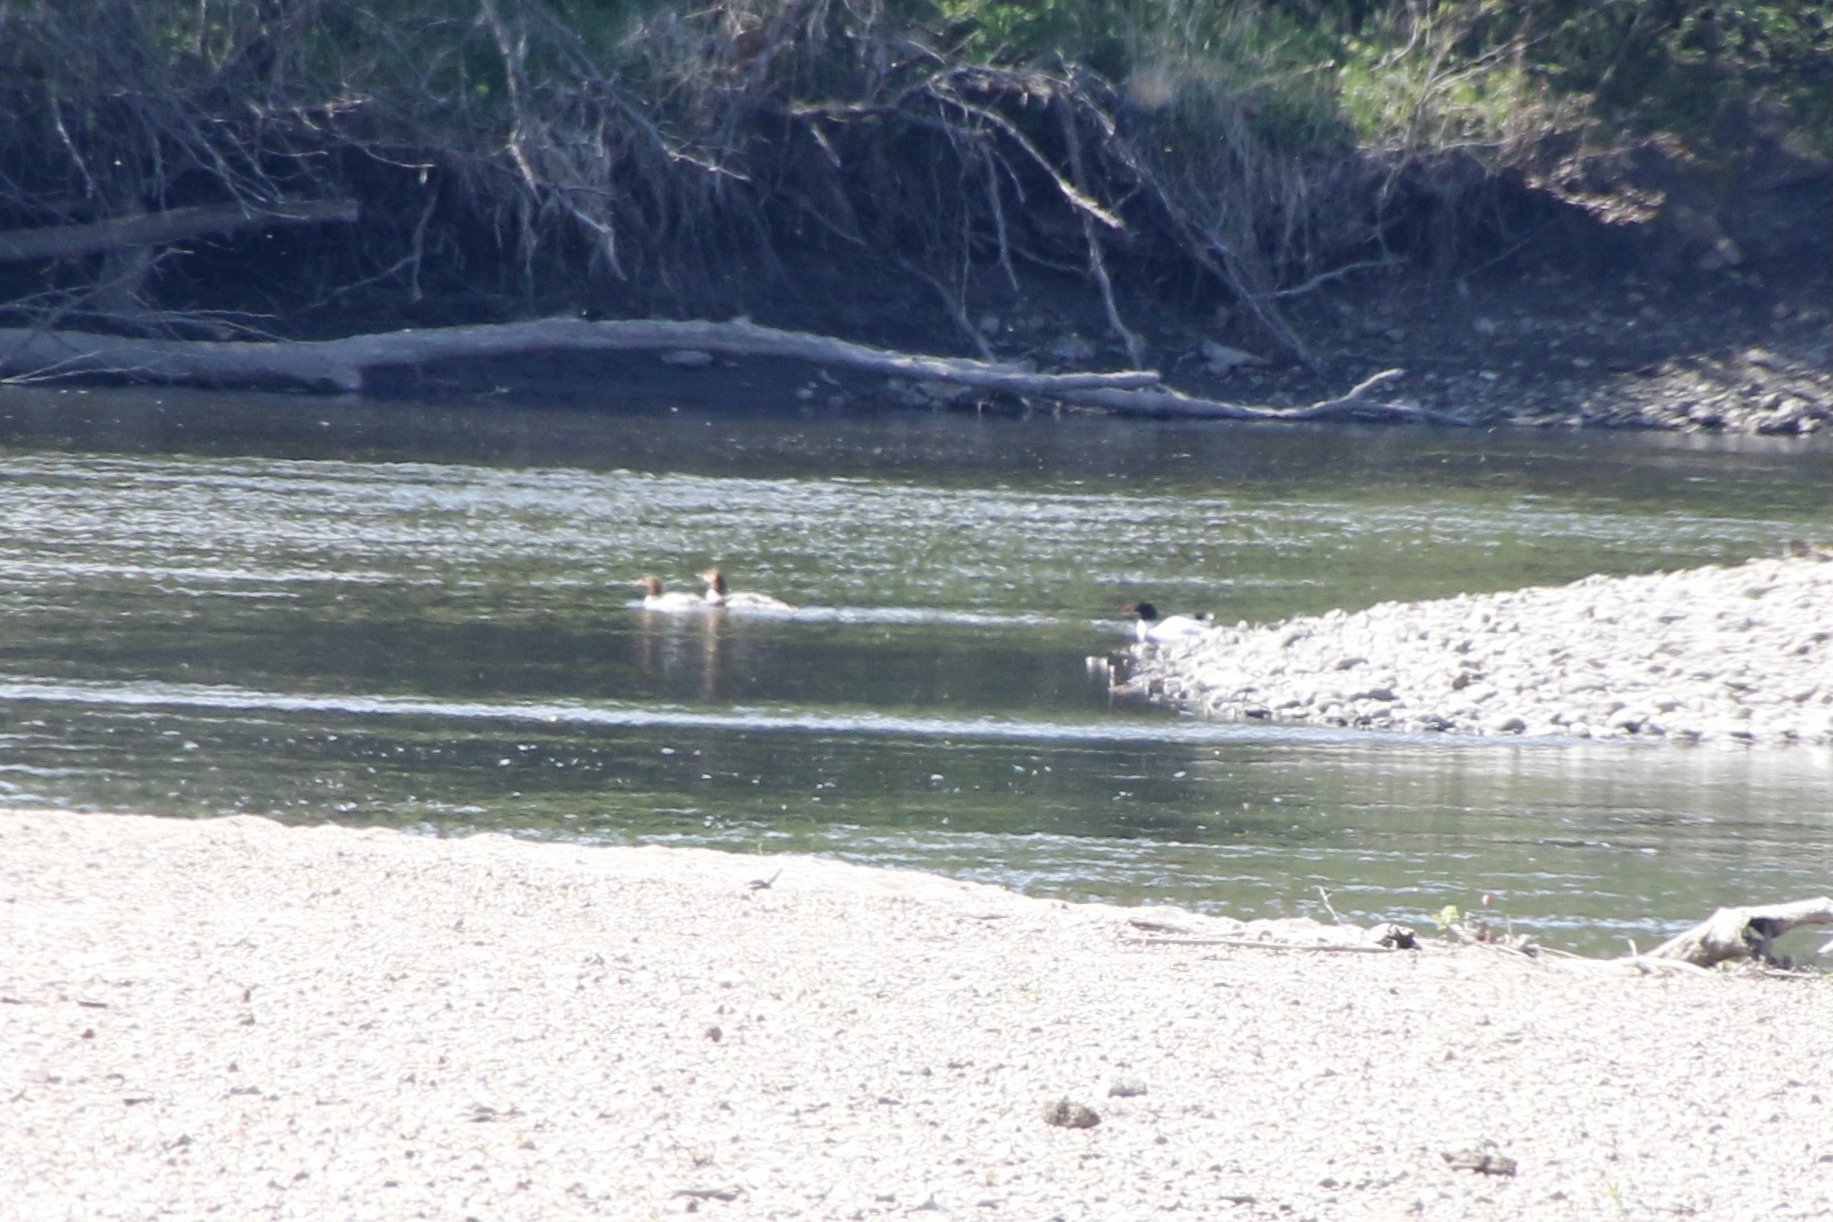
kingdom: Animalia
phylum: Chordata
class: Aves
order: Anseriformes
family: Anatidae
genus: Mergus
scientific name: Mergus merganser
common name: Common merganser
